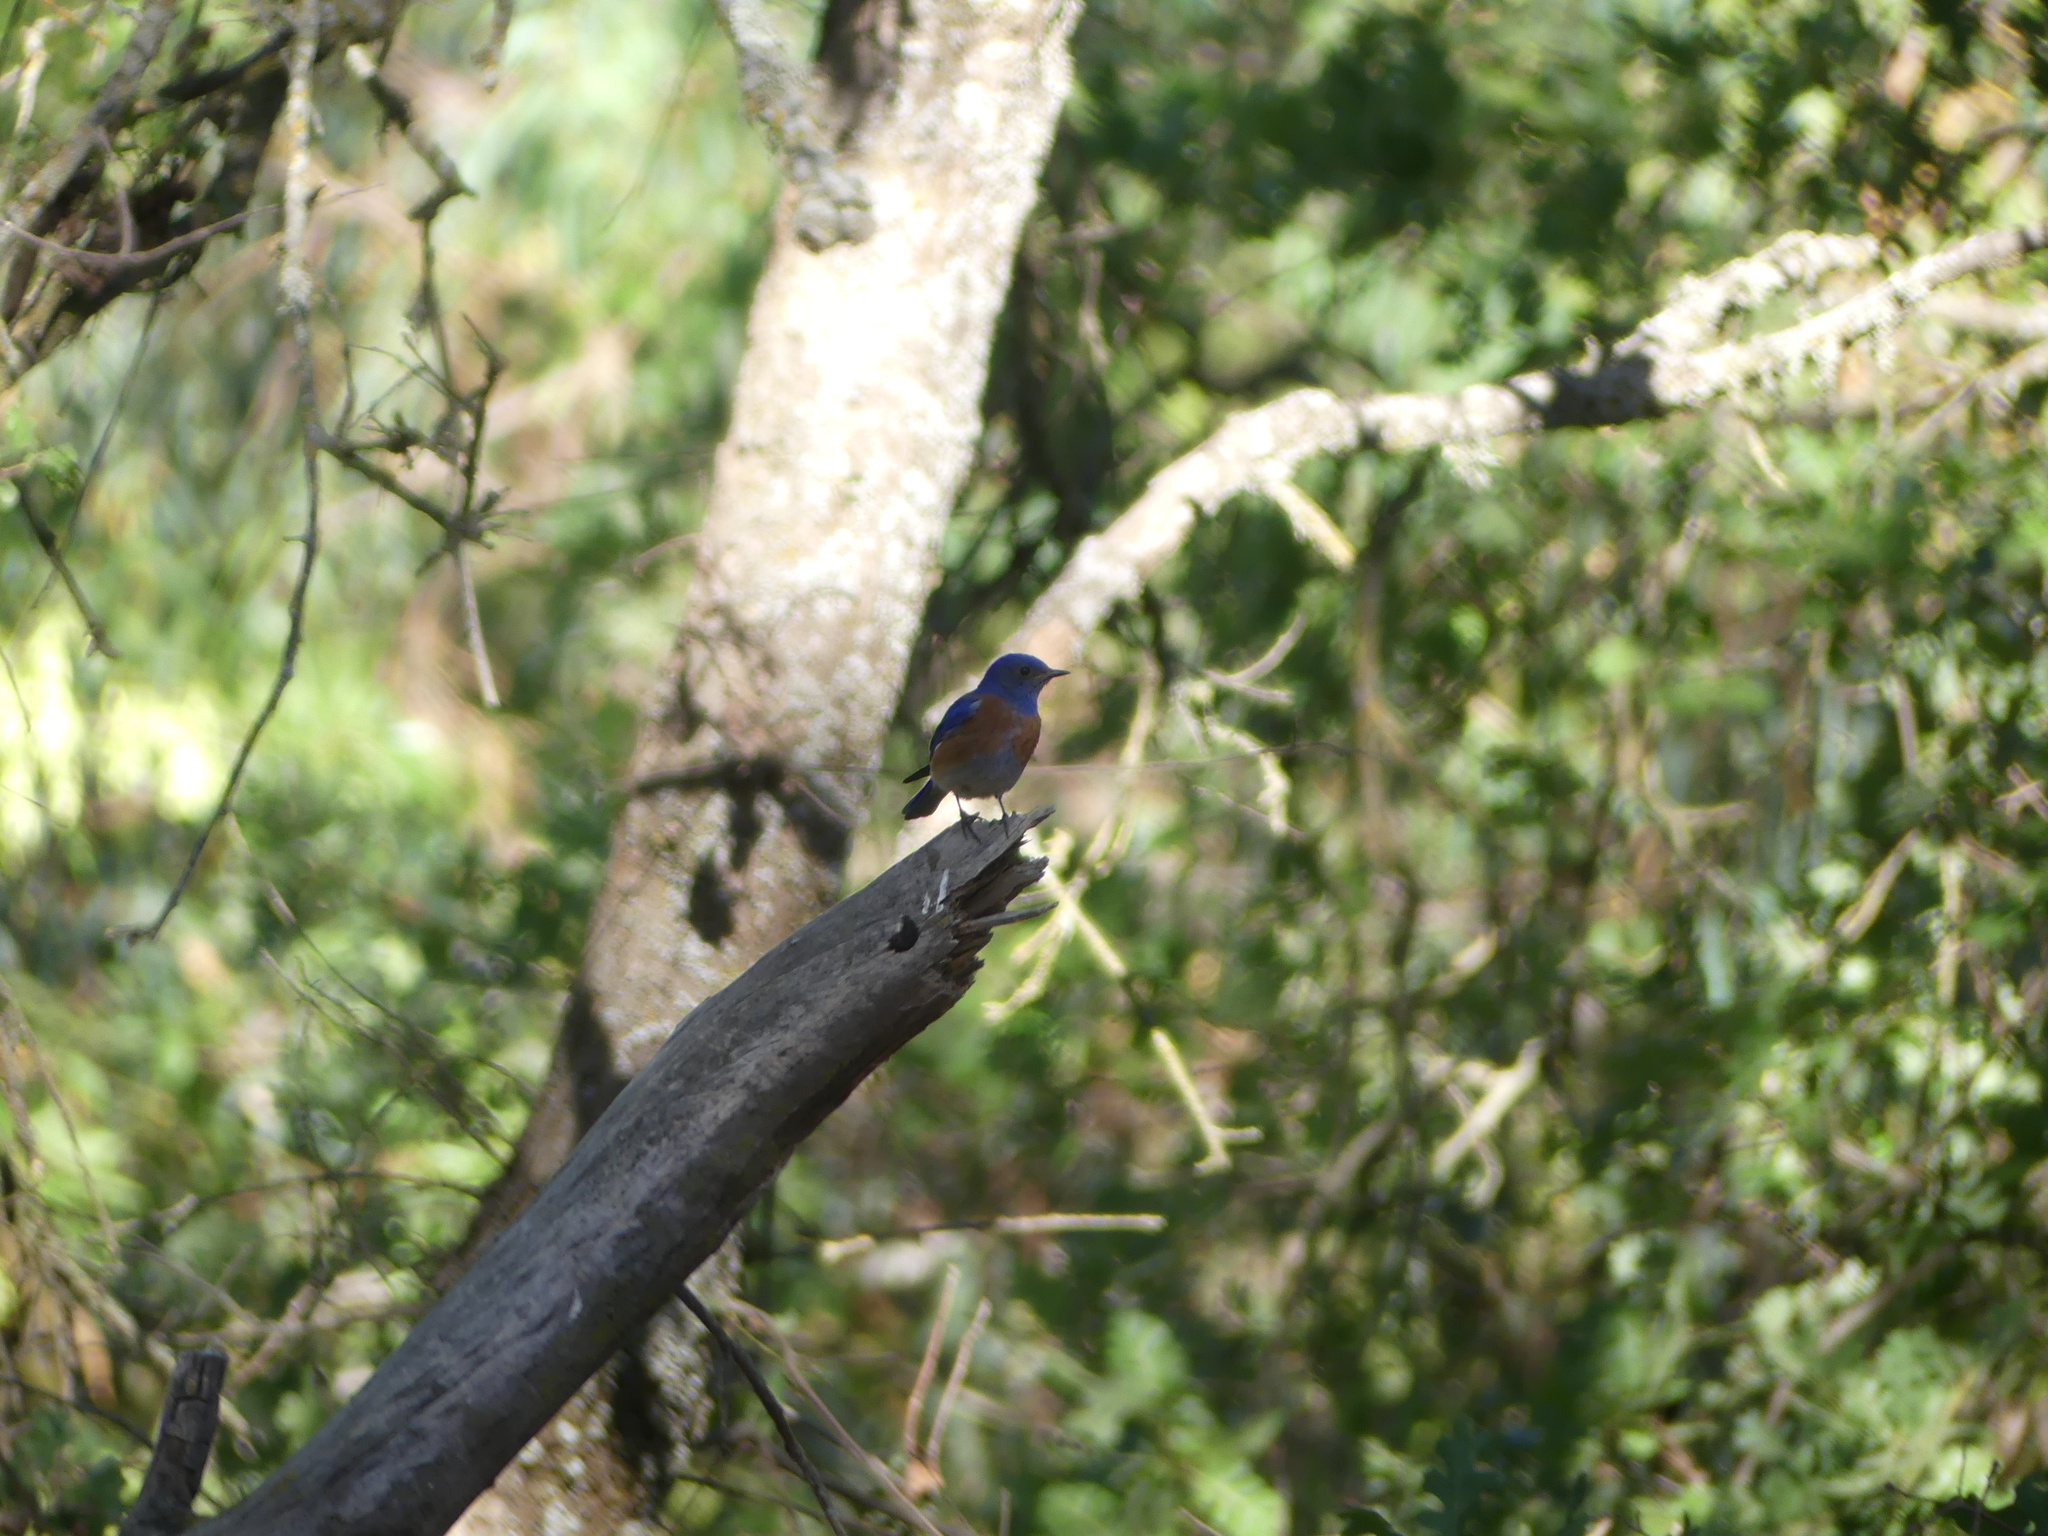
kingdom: Animalia
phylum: Chordata
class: Aves
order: Passeriformes
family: Turdidae
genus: Sialia
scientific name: Sialia mexicana
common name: Western bluebird
